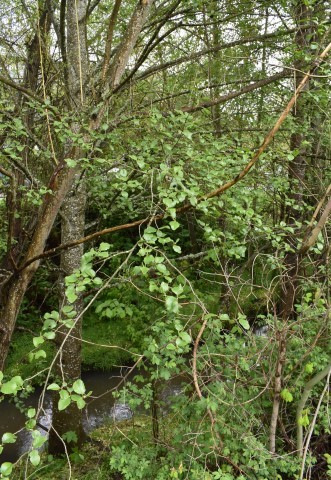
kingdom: Plantae
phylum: Tracheophyta
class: Magnoliopsida
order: Fagales
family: Betulaceae
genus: Alnus
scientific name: Alnus rhombifolia
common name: California alder
